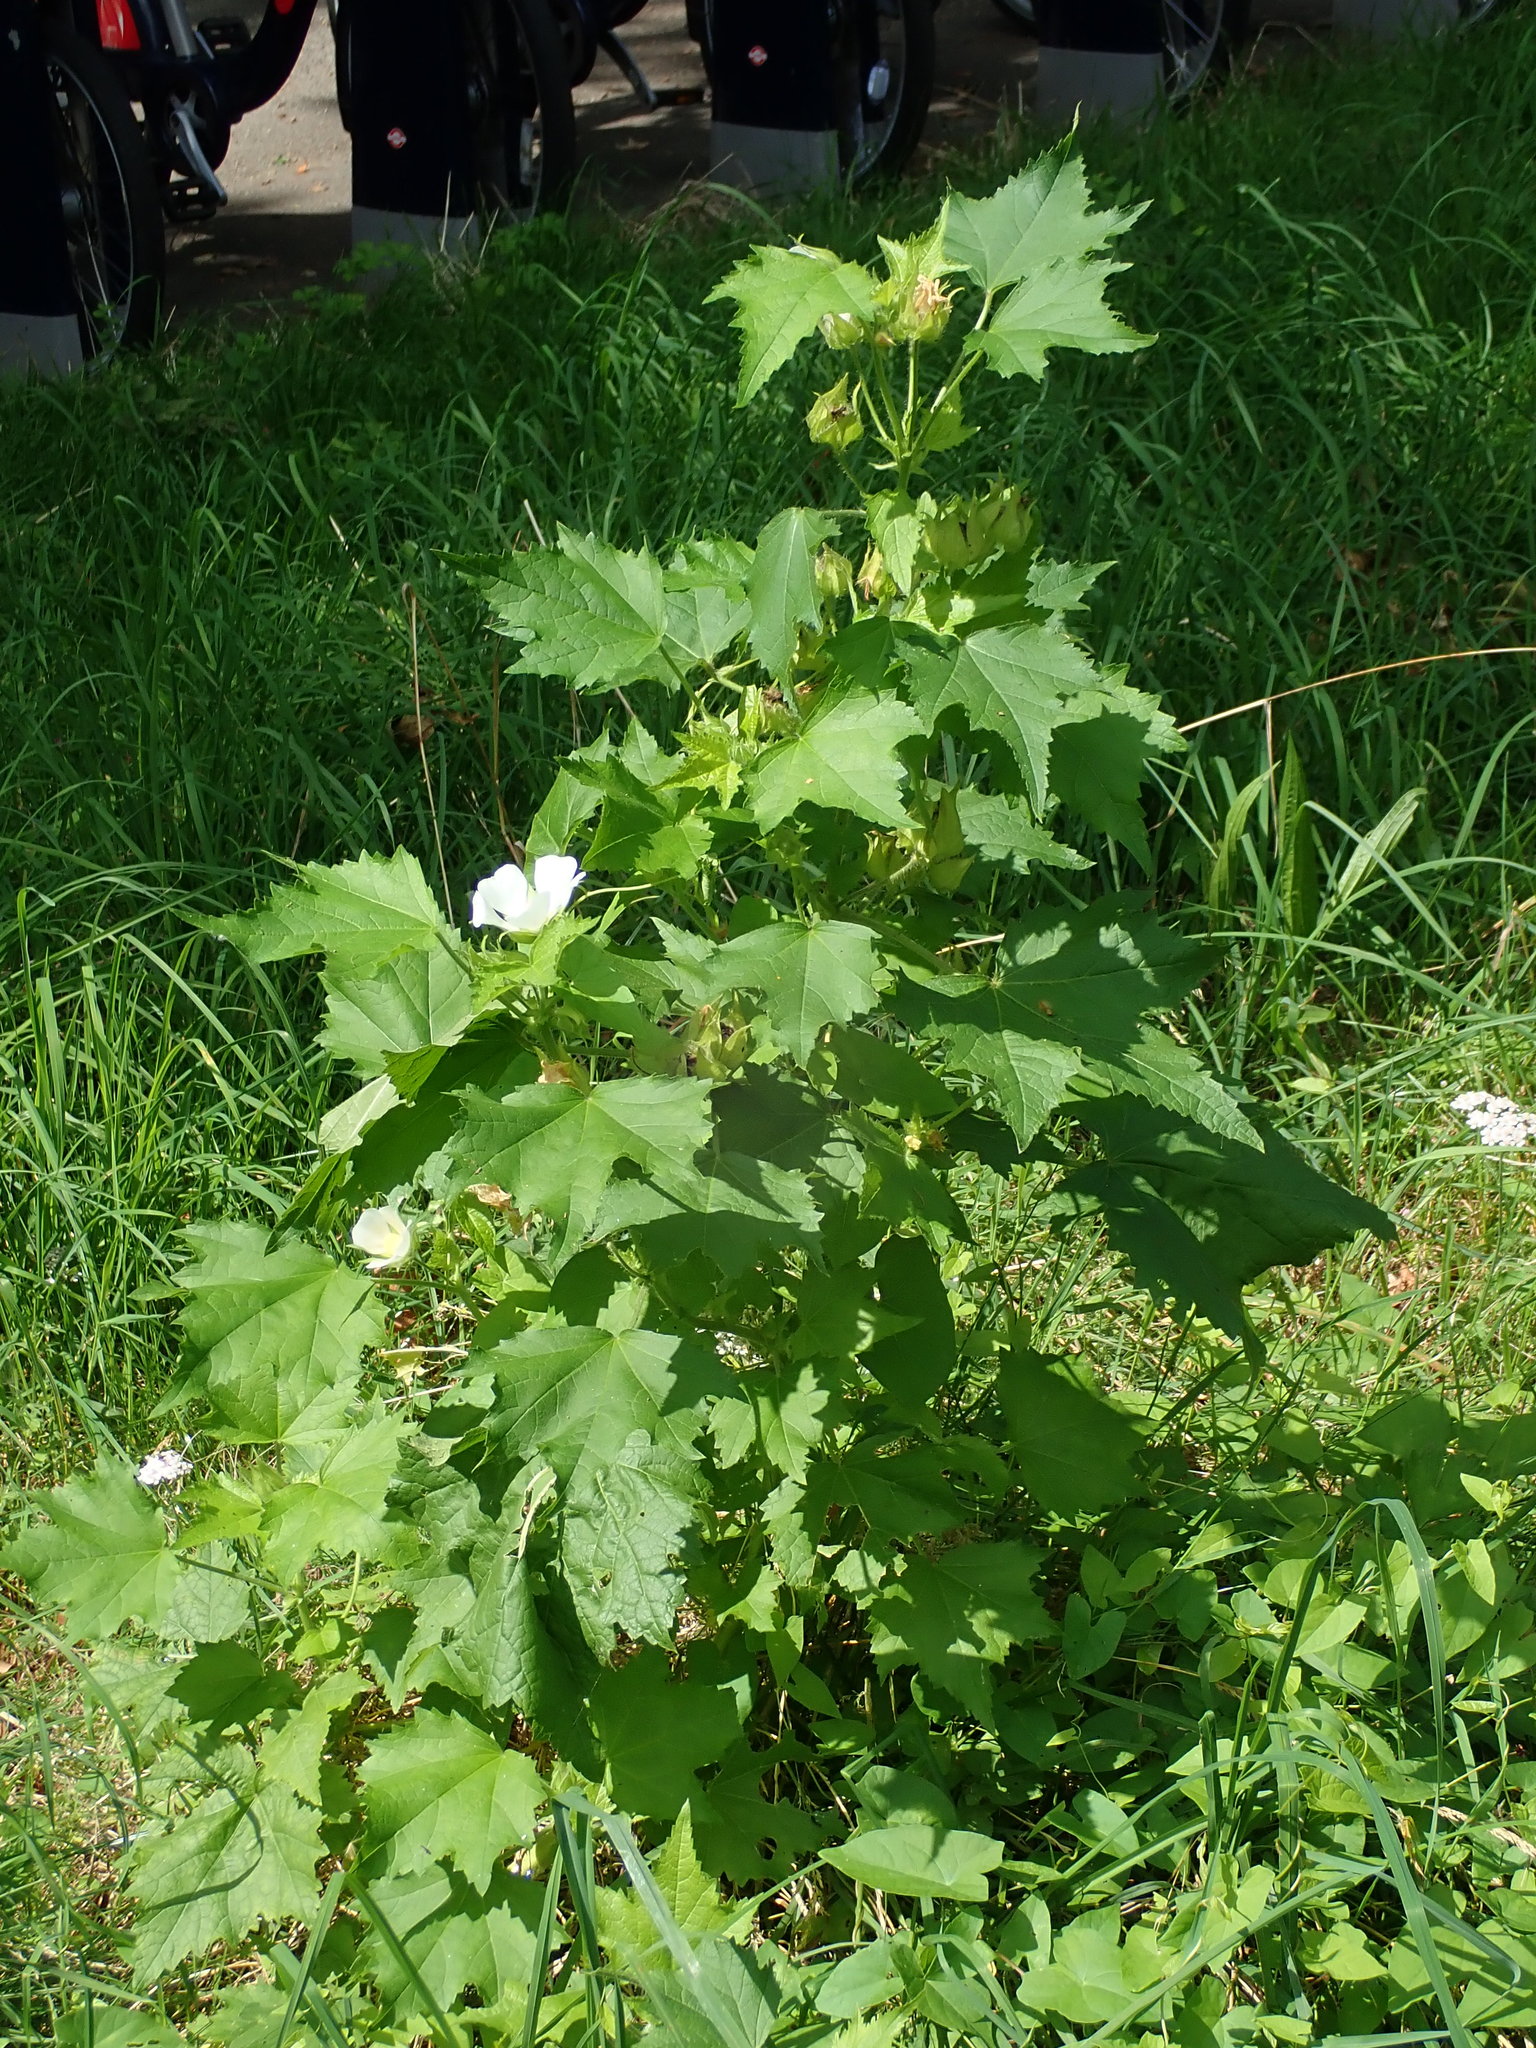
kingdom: Plantae
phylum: Tracheophyta
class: Magnoliopsida
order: Malvales
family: Malvaceae
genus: Kitaibela
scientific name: Kitaibela vitifolia
